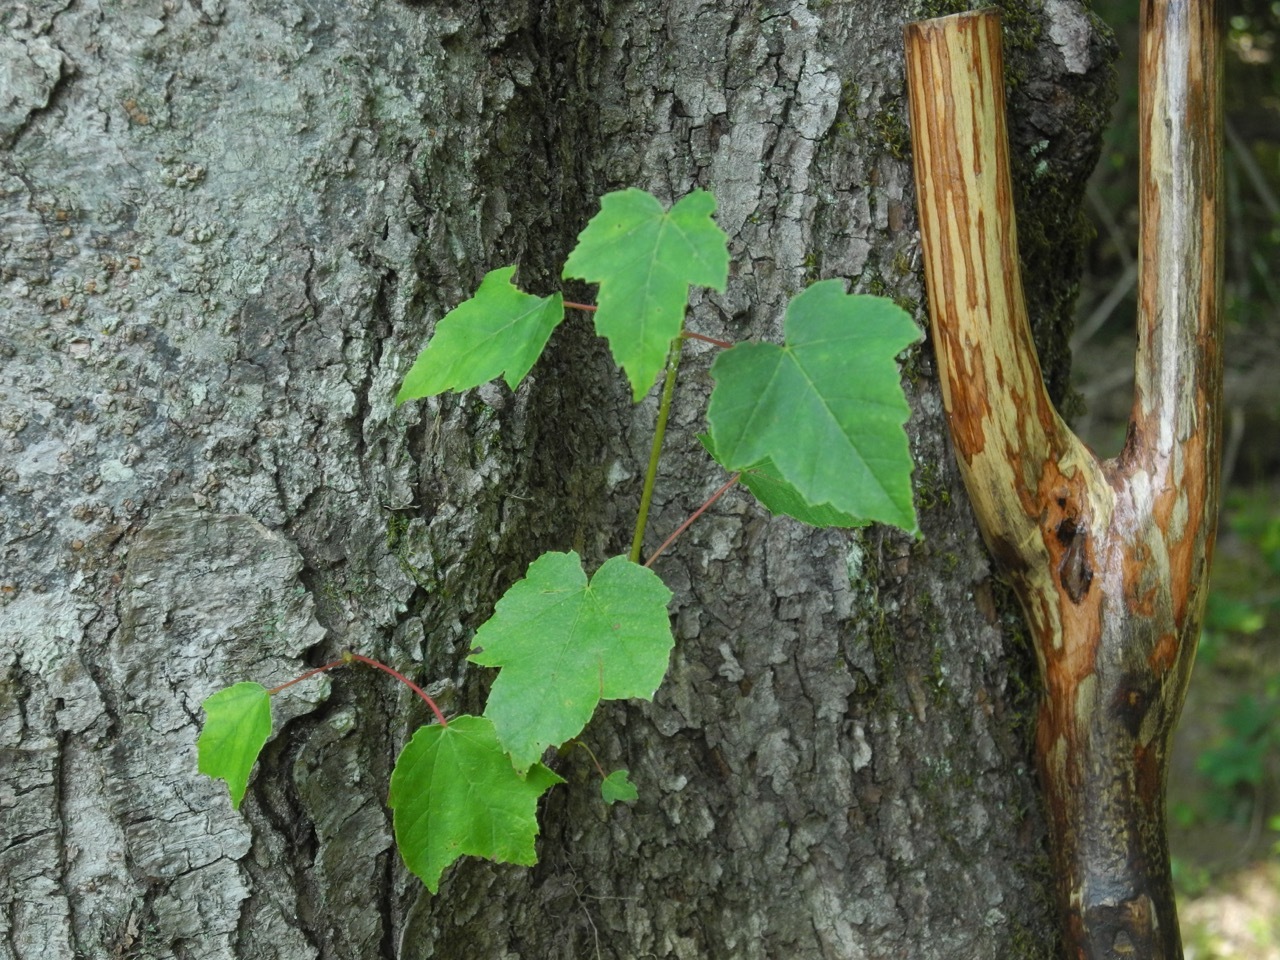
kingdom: Plantae
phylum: Tracheophyta
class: Magnoliopsida
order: Sapindales
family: Sapindaceae
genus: Acer
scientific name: Acer rubrum
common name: Red maple
